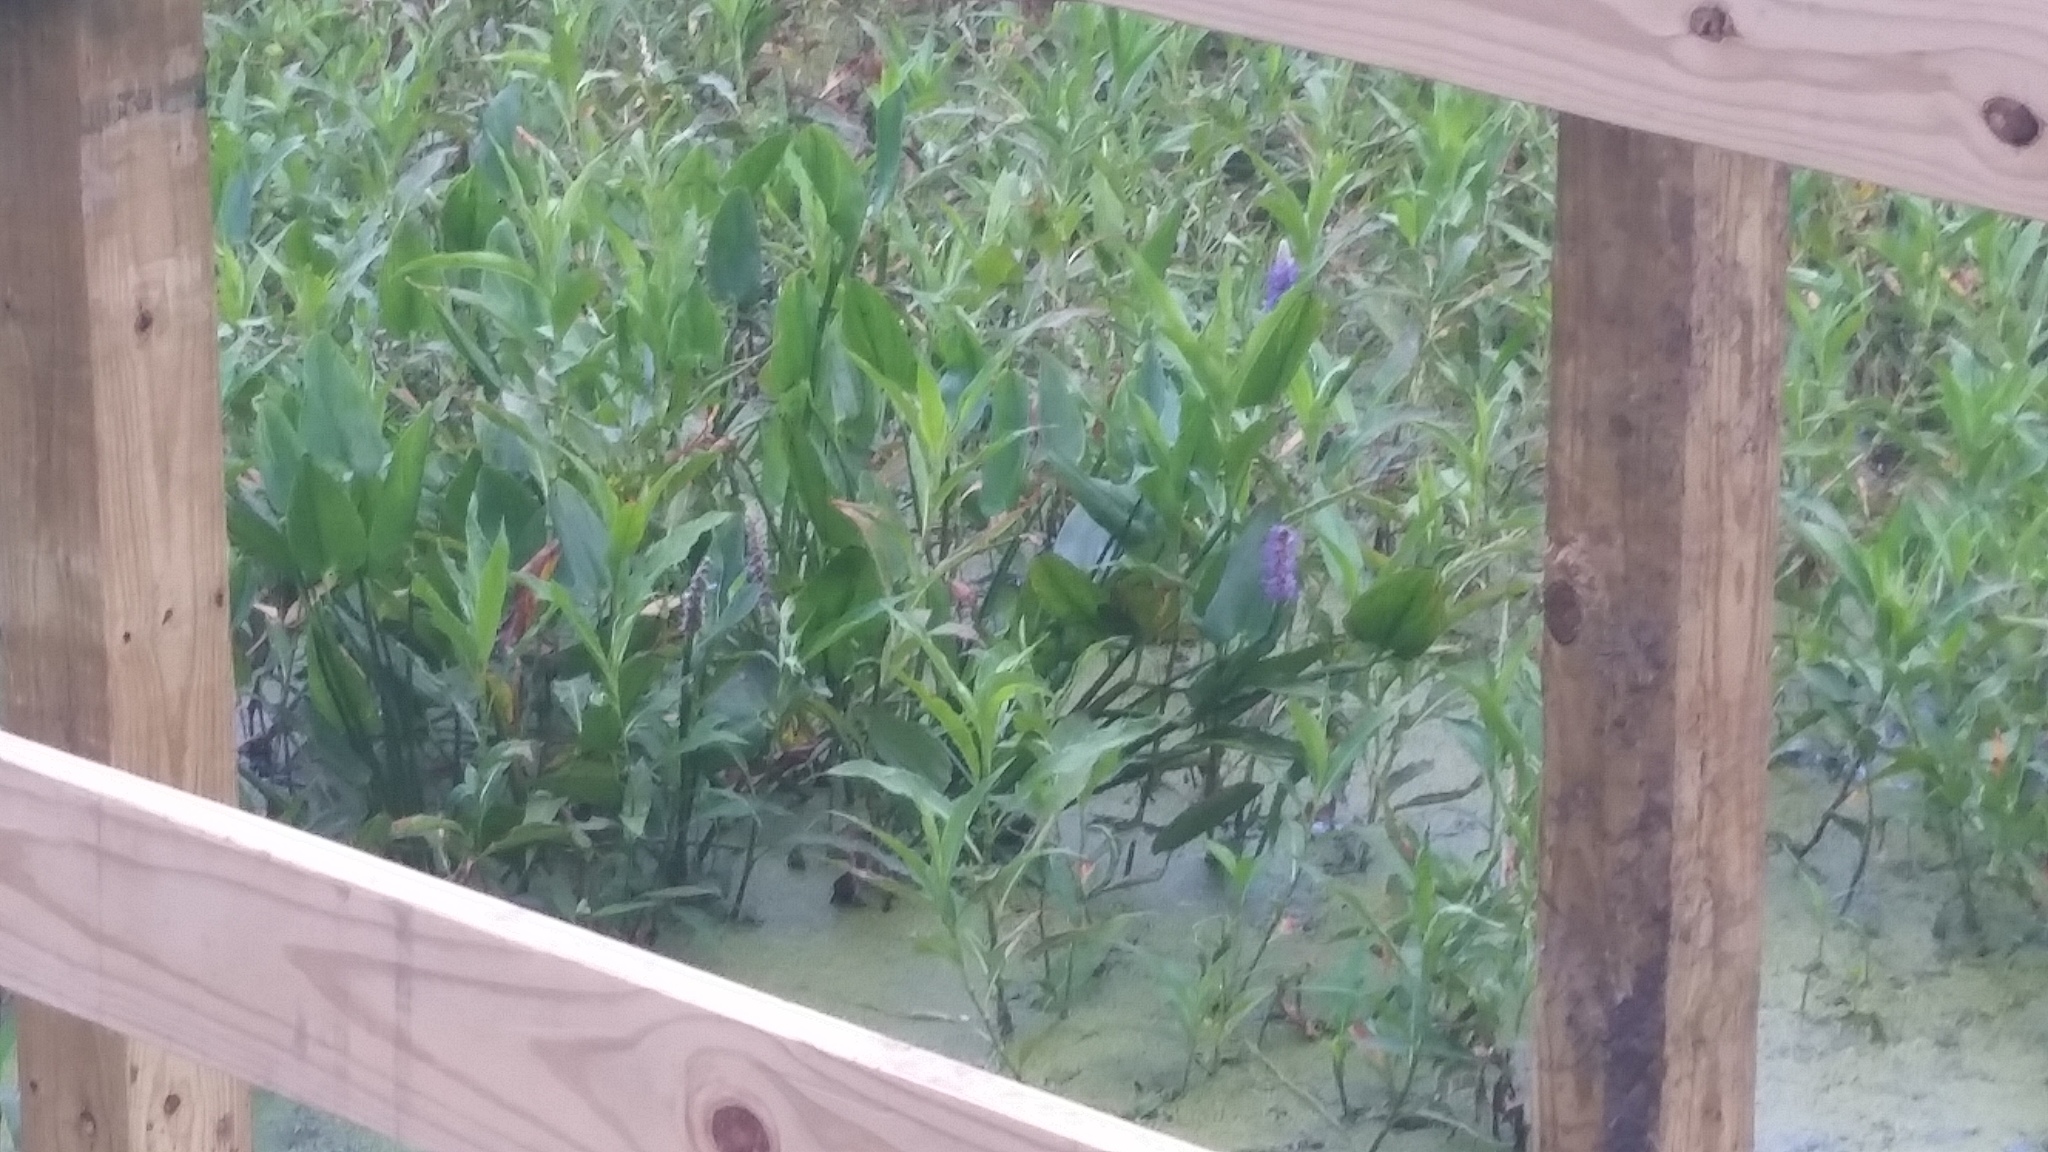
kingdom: Plantae
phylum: Tracheophyta
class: Liliopsida
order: Commelinales
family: Pontederiaceae
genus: Pontederia
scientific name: Pontederia cordata
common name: Pickerelweed
